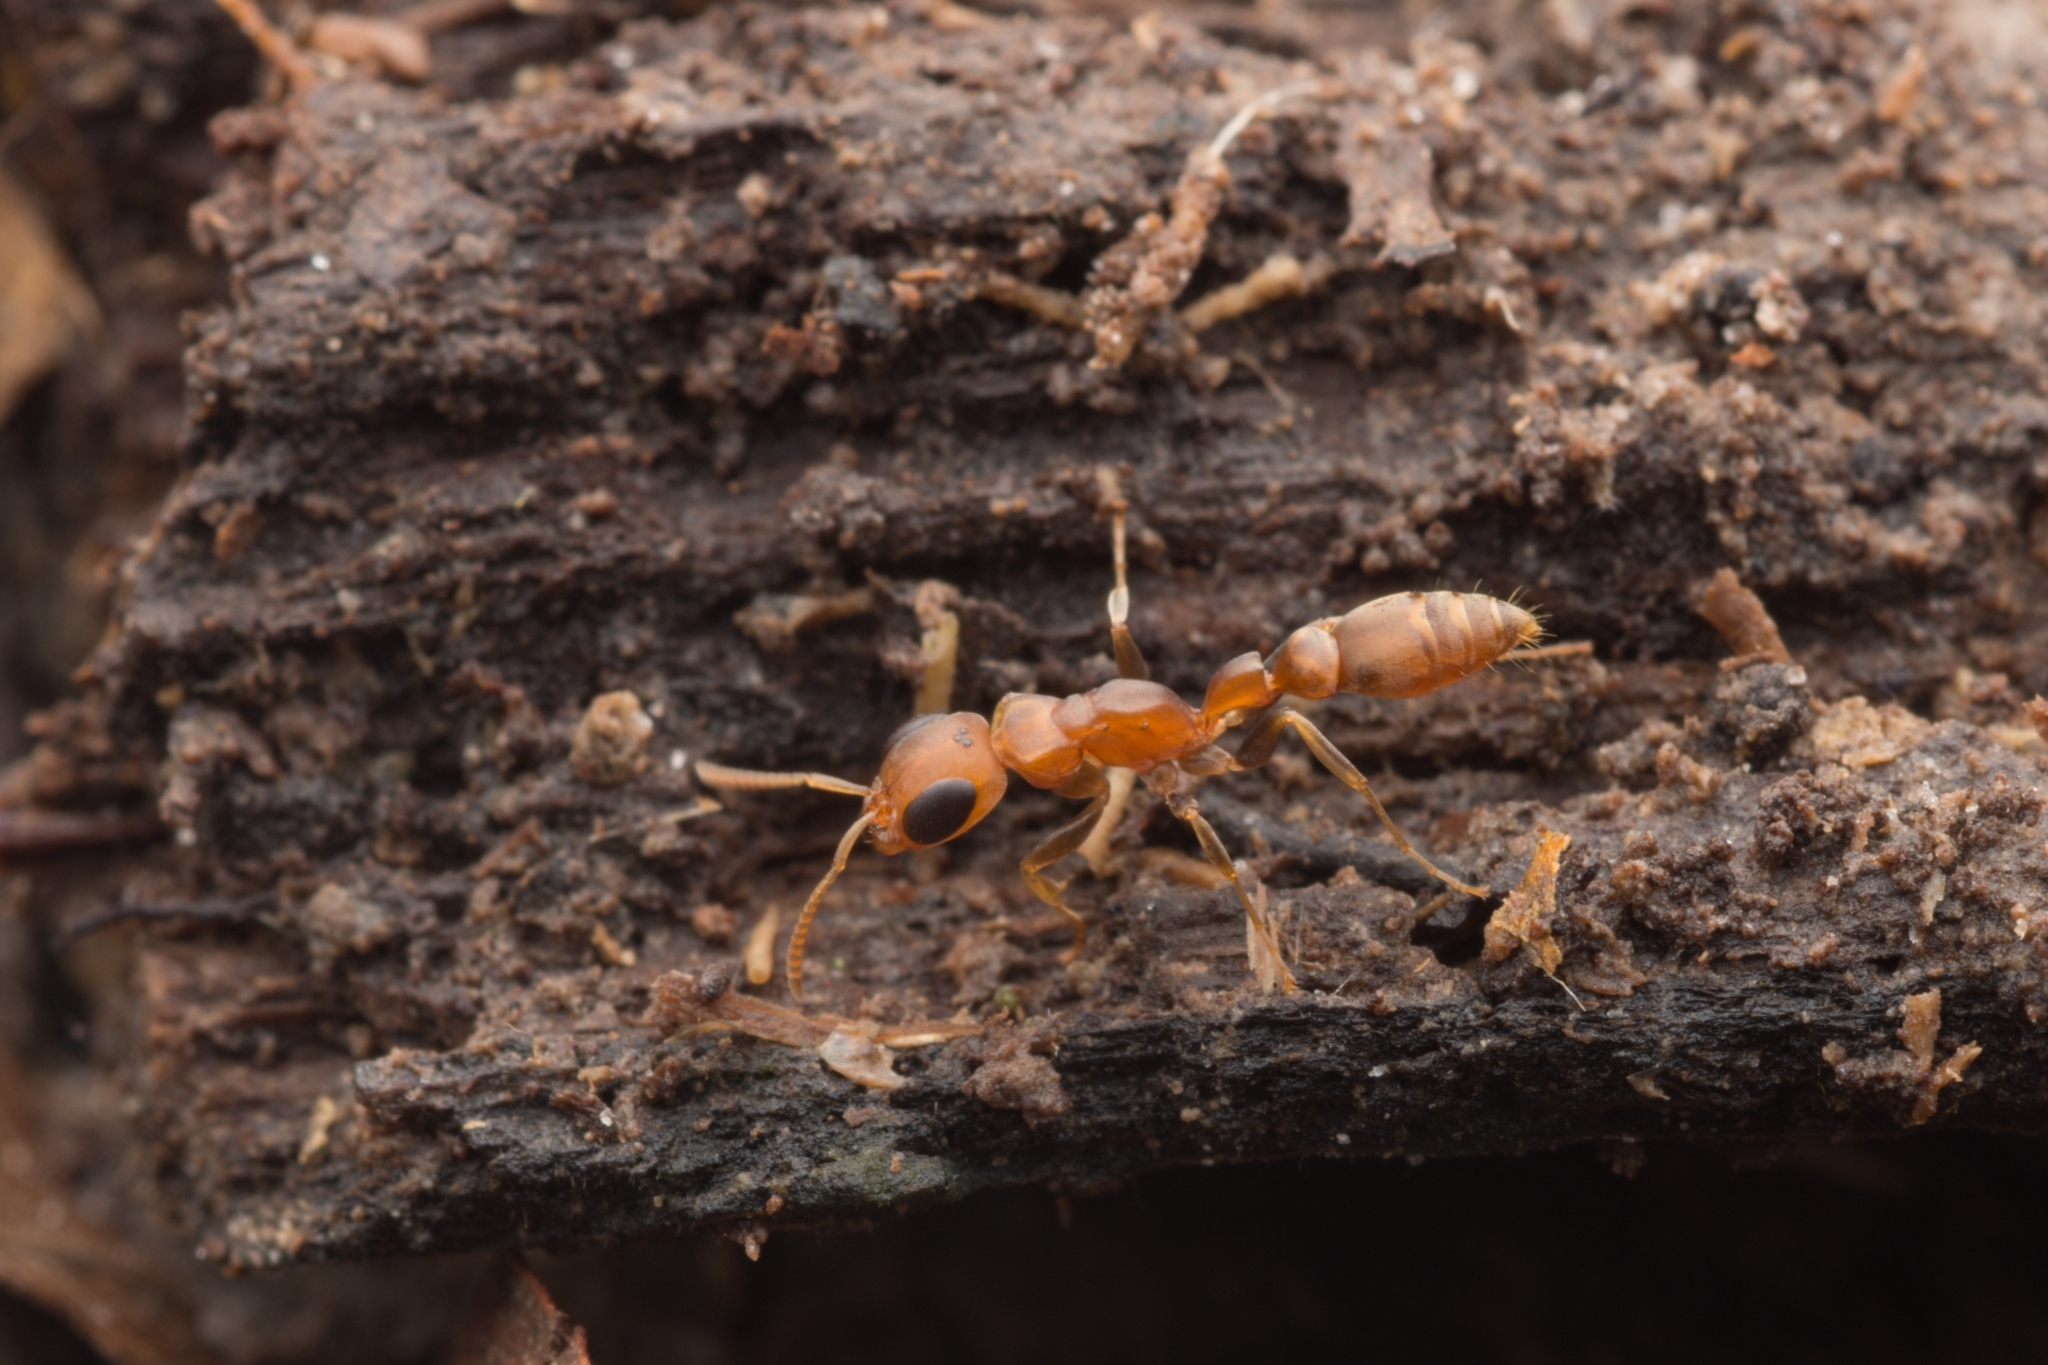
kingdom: Animalia
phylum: Arthropoda
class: Insecta
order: Hymenoptera
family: Formicidae
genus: Pseudomyrmex
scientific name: Pseudomyrmex
